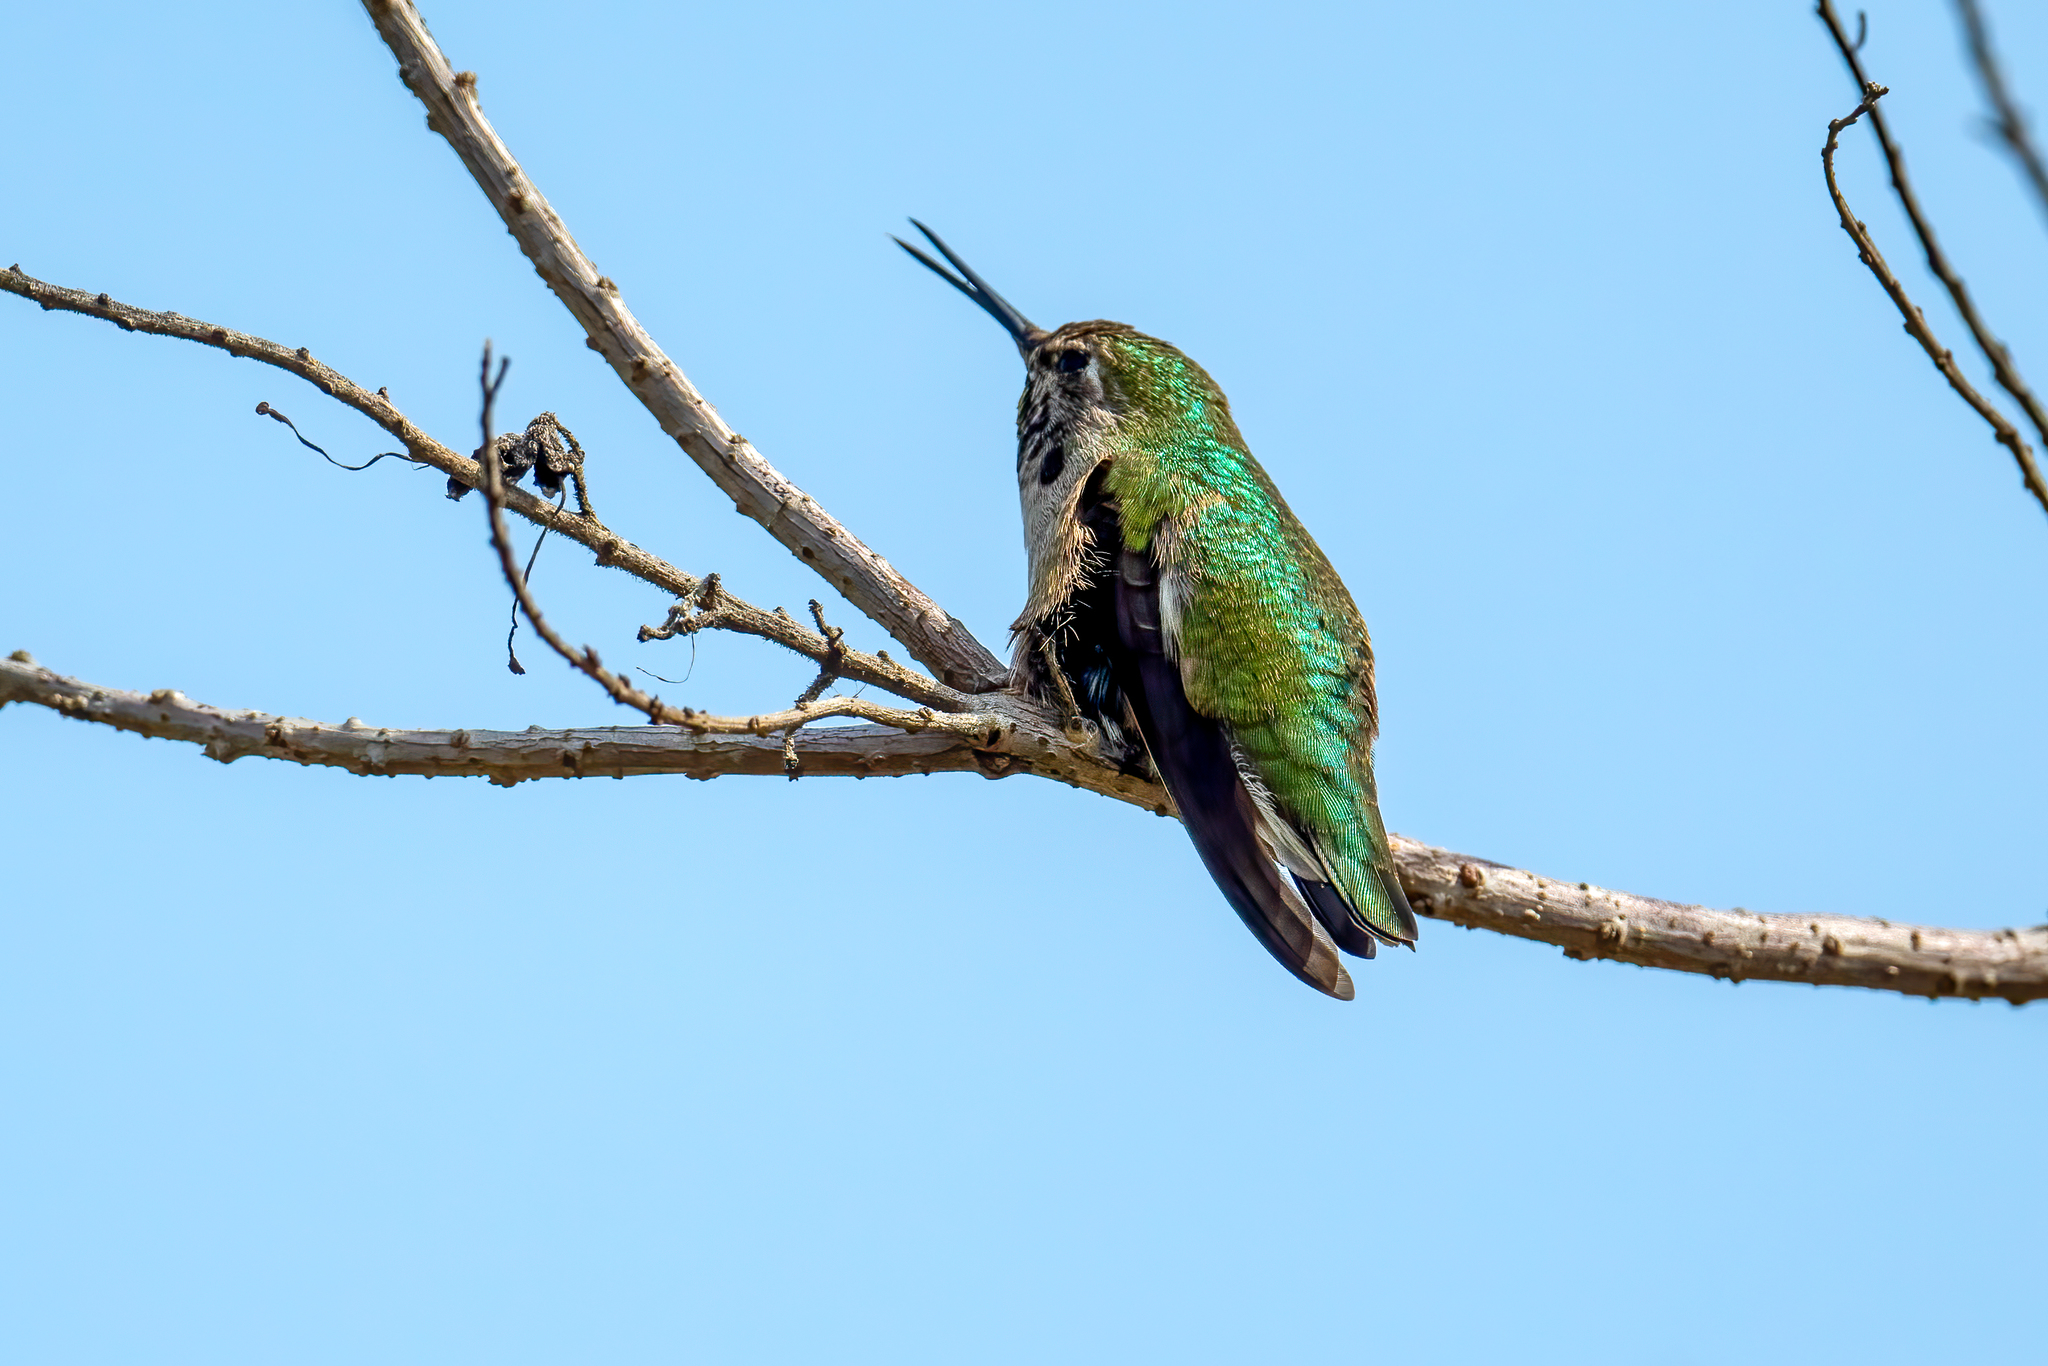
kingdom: Animalia
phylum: Chordata
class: Aves
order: Apodiformes
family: Trochilidae
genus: Calypte
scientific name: Calypte anna
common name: Anna's hummingbird
